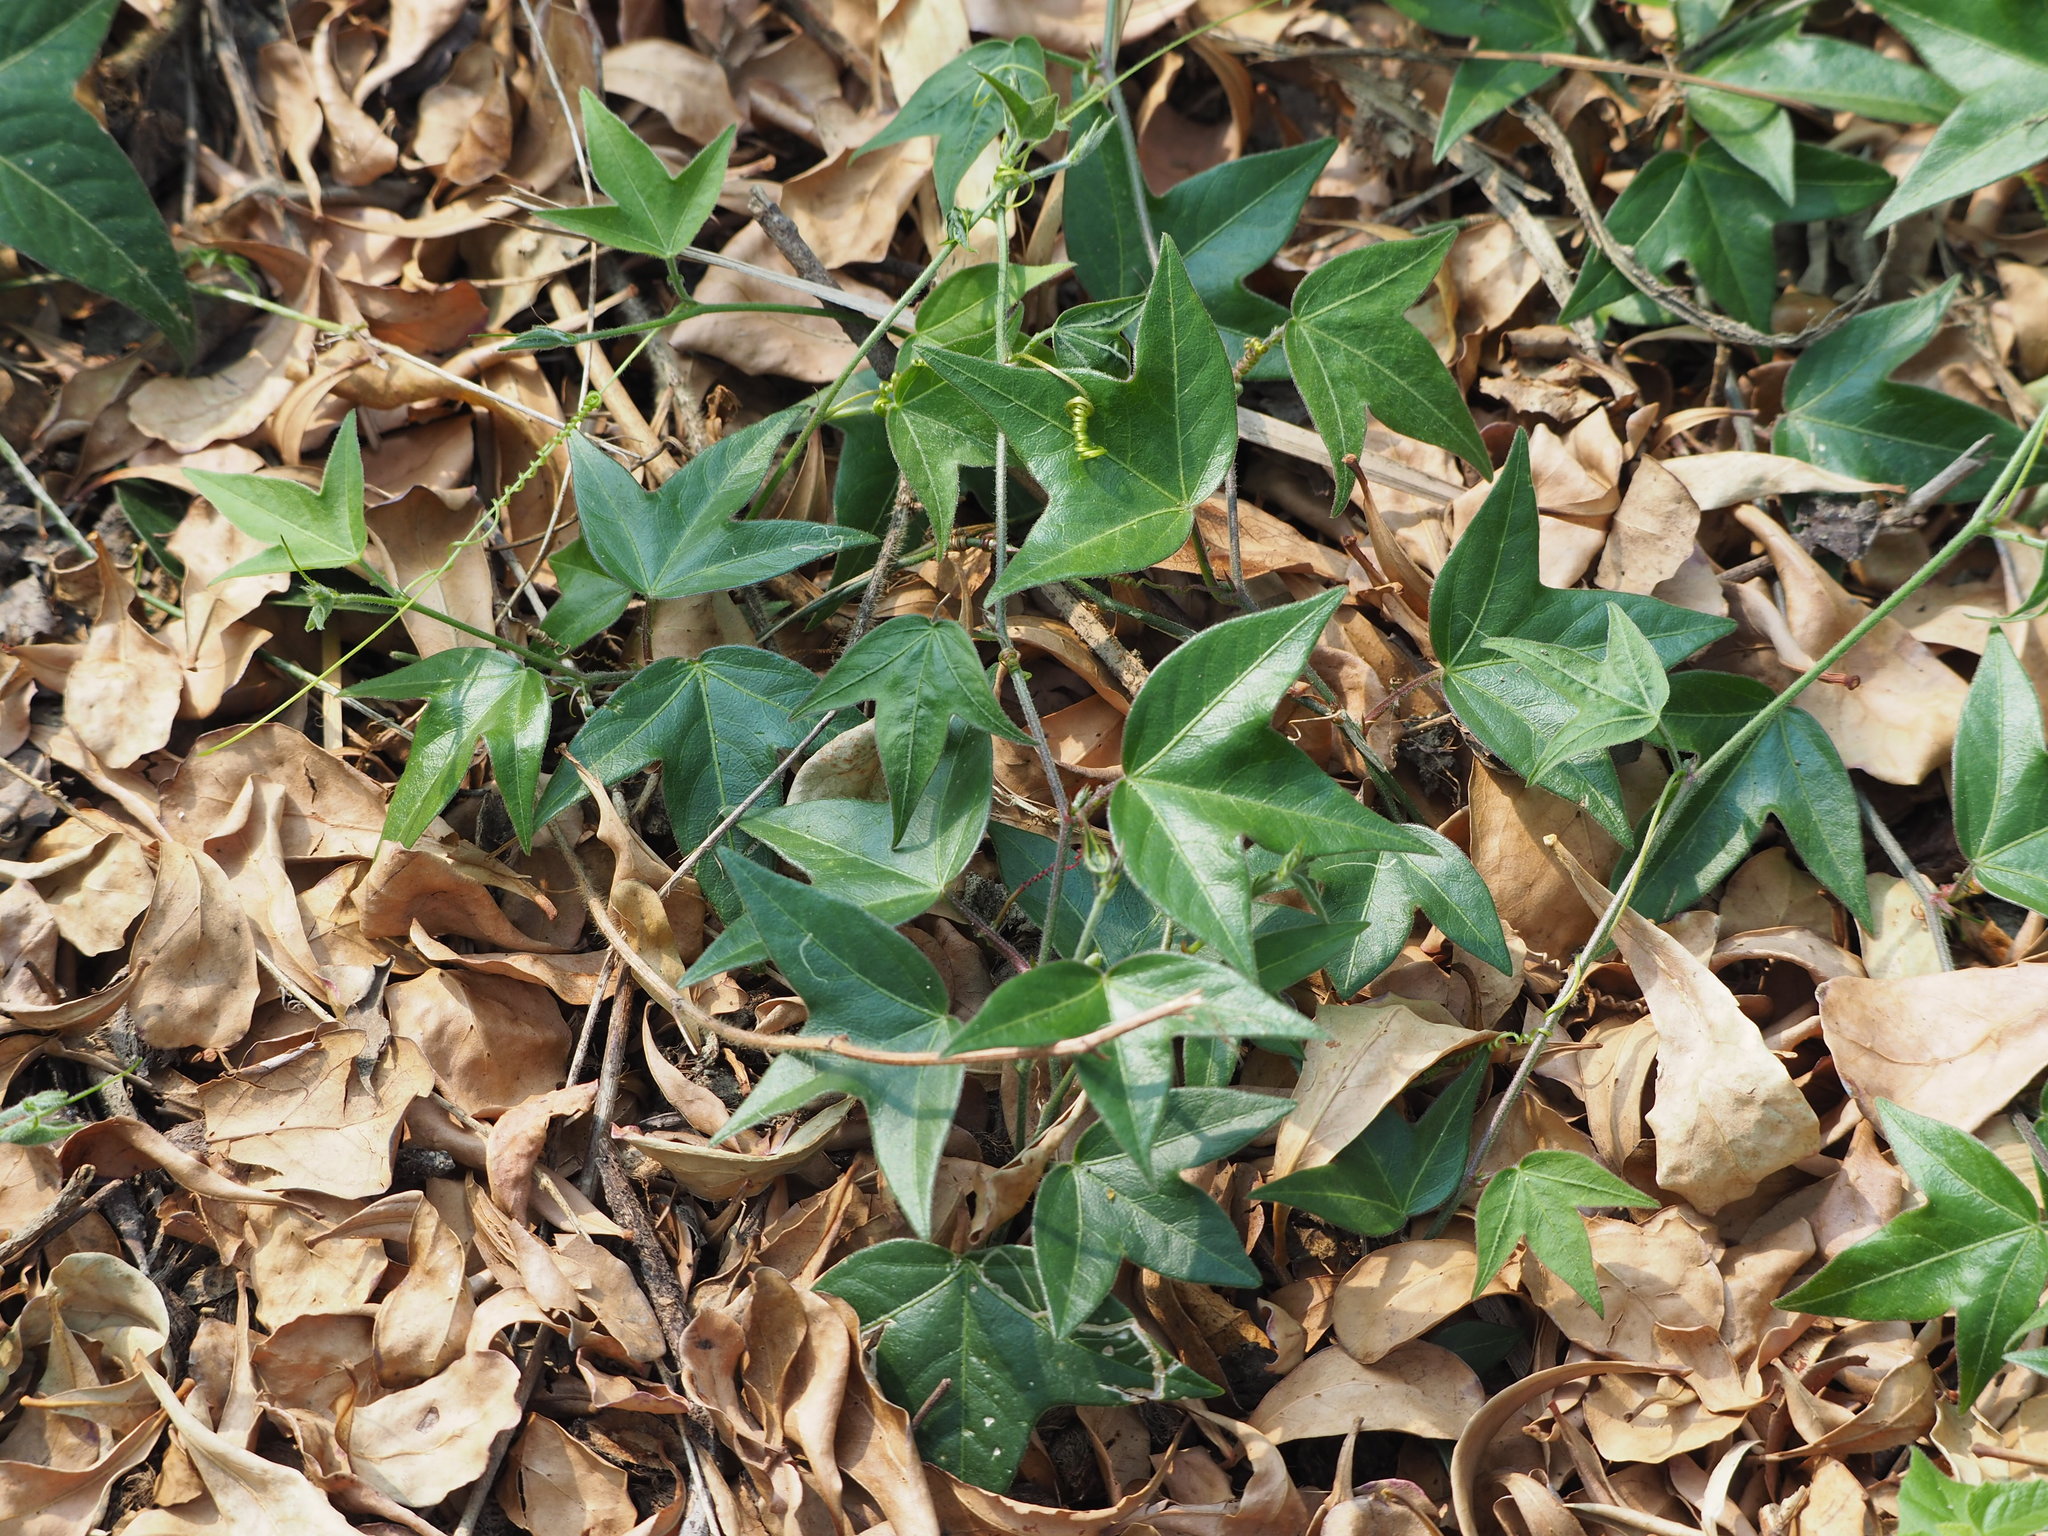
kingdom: Plantae
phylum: Tracheophyta
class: Magnoliopsida
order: Malpighiales
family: Passifloraceae
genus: Passiflora
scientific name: Passiflora suberosa
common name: Wild passionfruit
